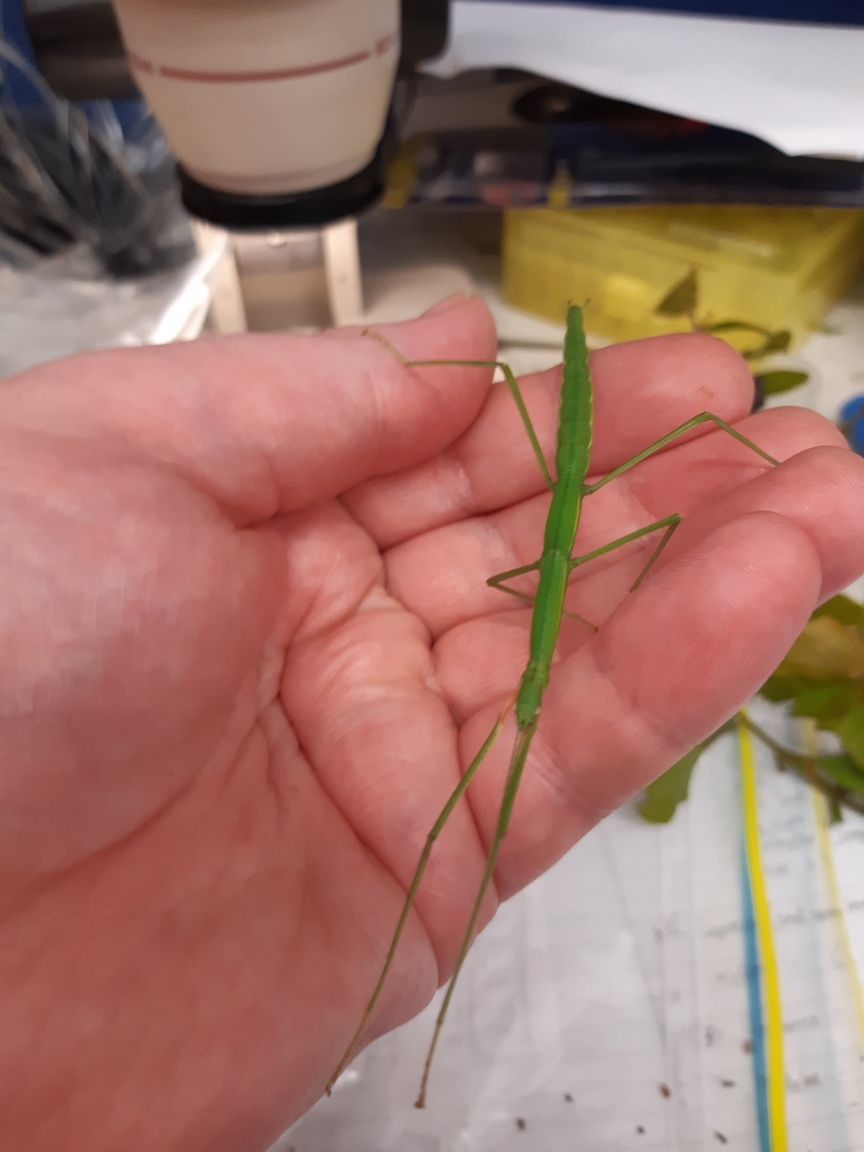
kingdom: Animalia
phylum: Arthropoda
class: Insecta
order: Phasmida
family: Phasmatidae
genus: Clitarchus
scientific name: Clitarchus hookeri
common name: Smooth stick insect
